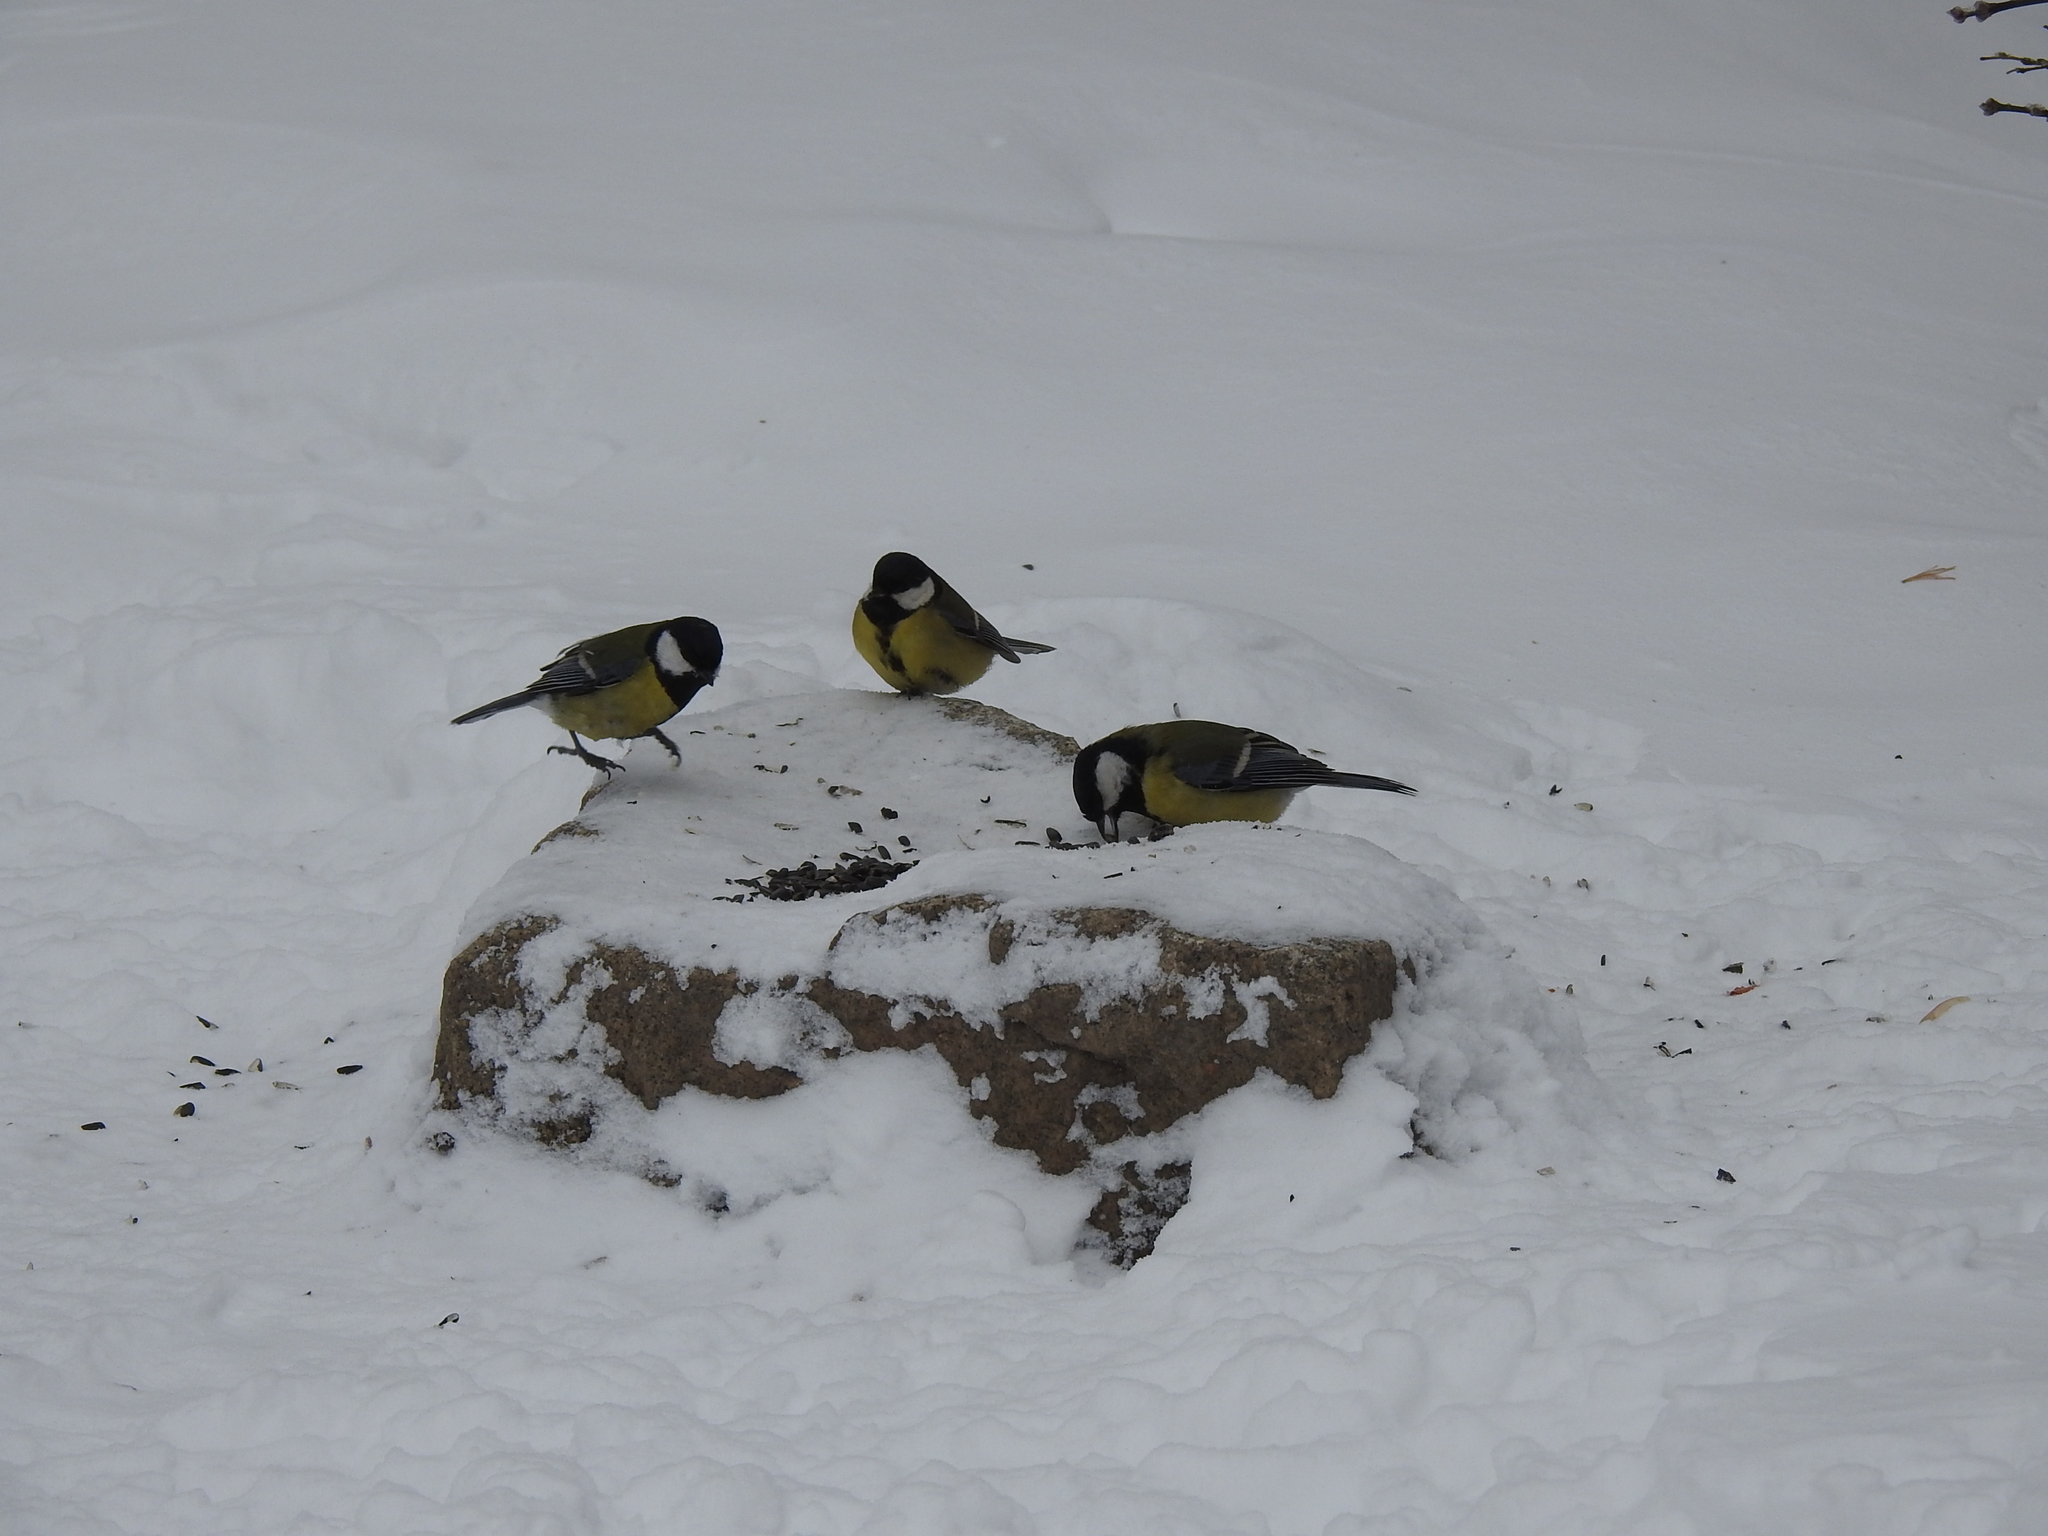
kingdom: Animalia
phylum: Chordata
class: Aves
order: Passeriformes
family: Paridae
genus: Parus
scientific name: Parus major
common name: Great tit
